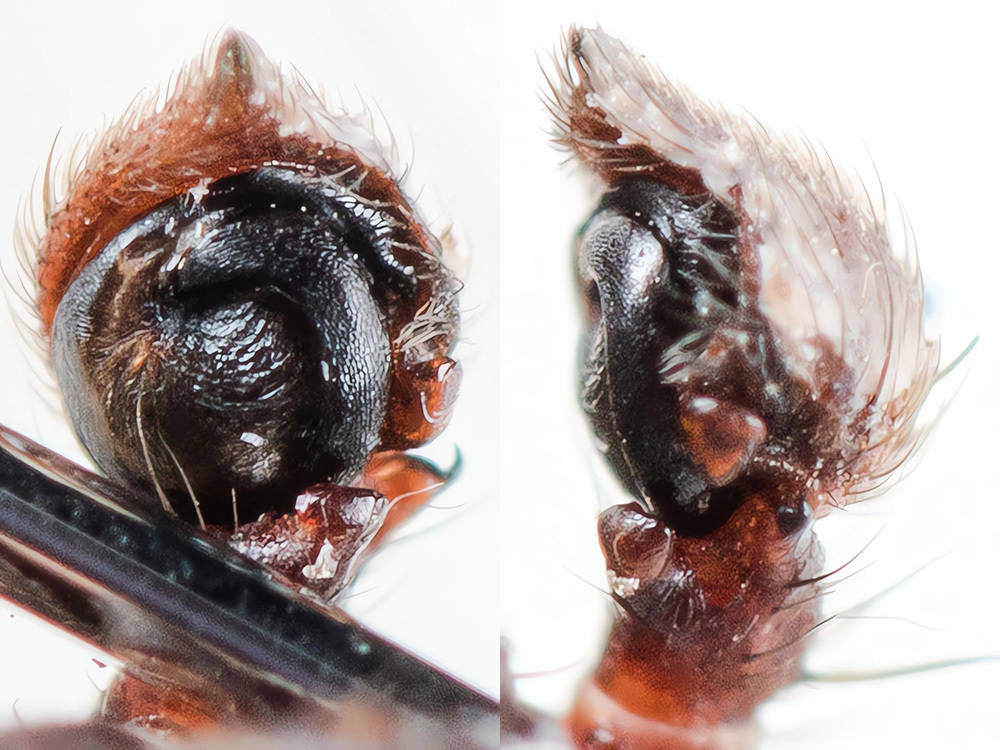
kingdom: Animalia
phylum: Arthropoda
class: Arachnida
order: Araneae
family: Thomisidae
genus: Spiracme
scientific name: Spiracme striatipes
